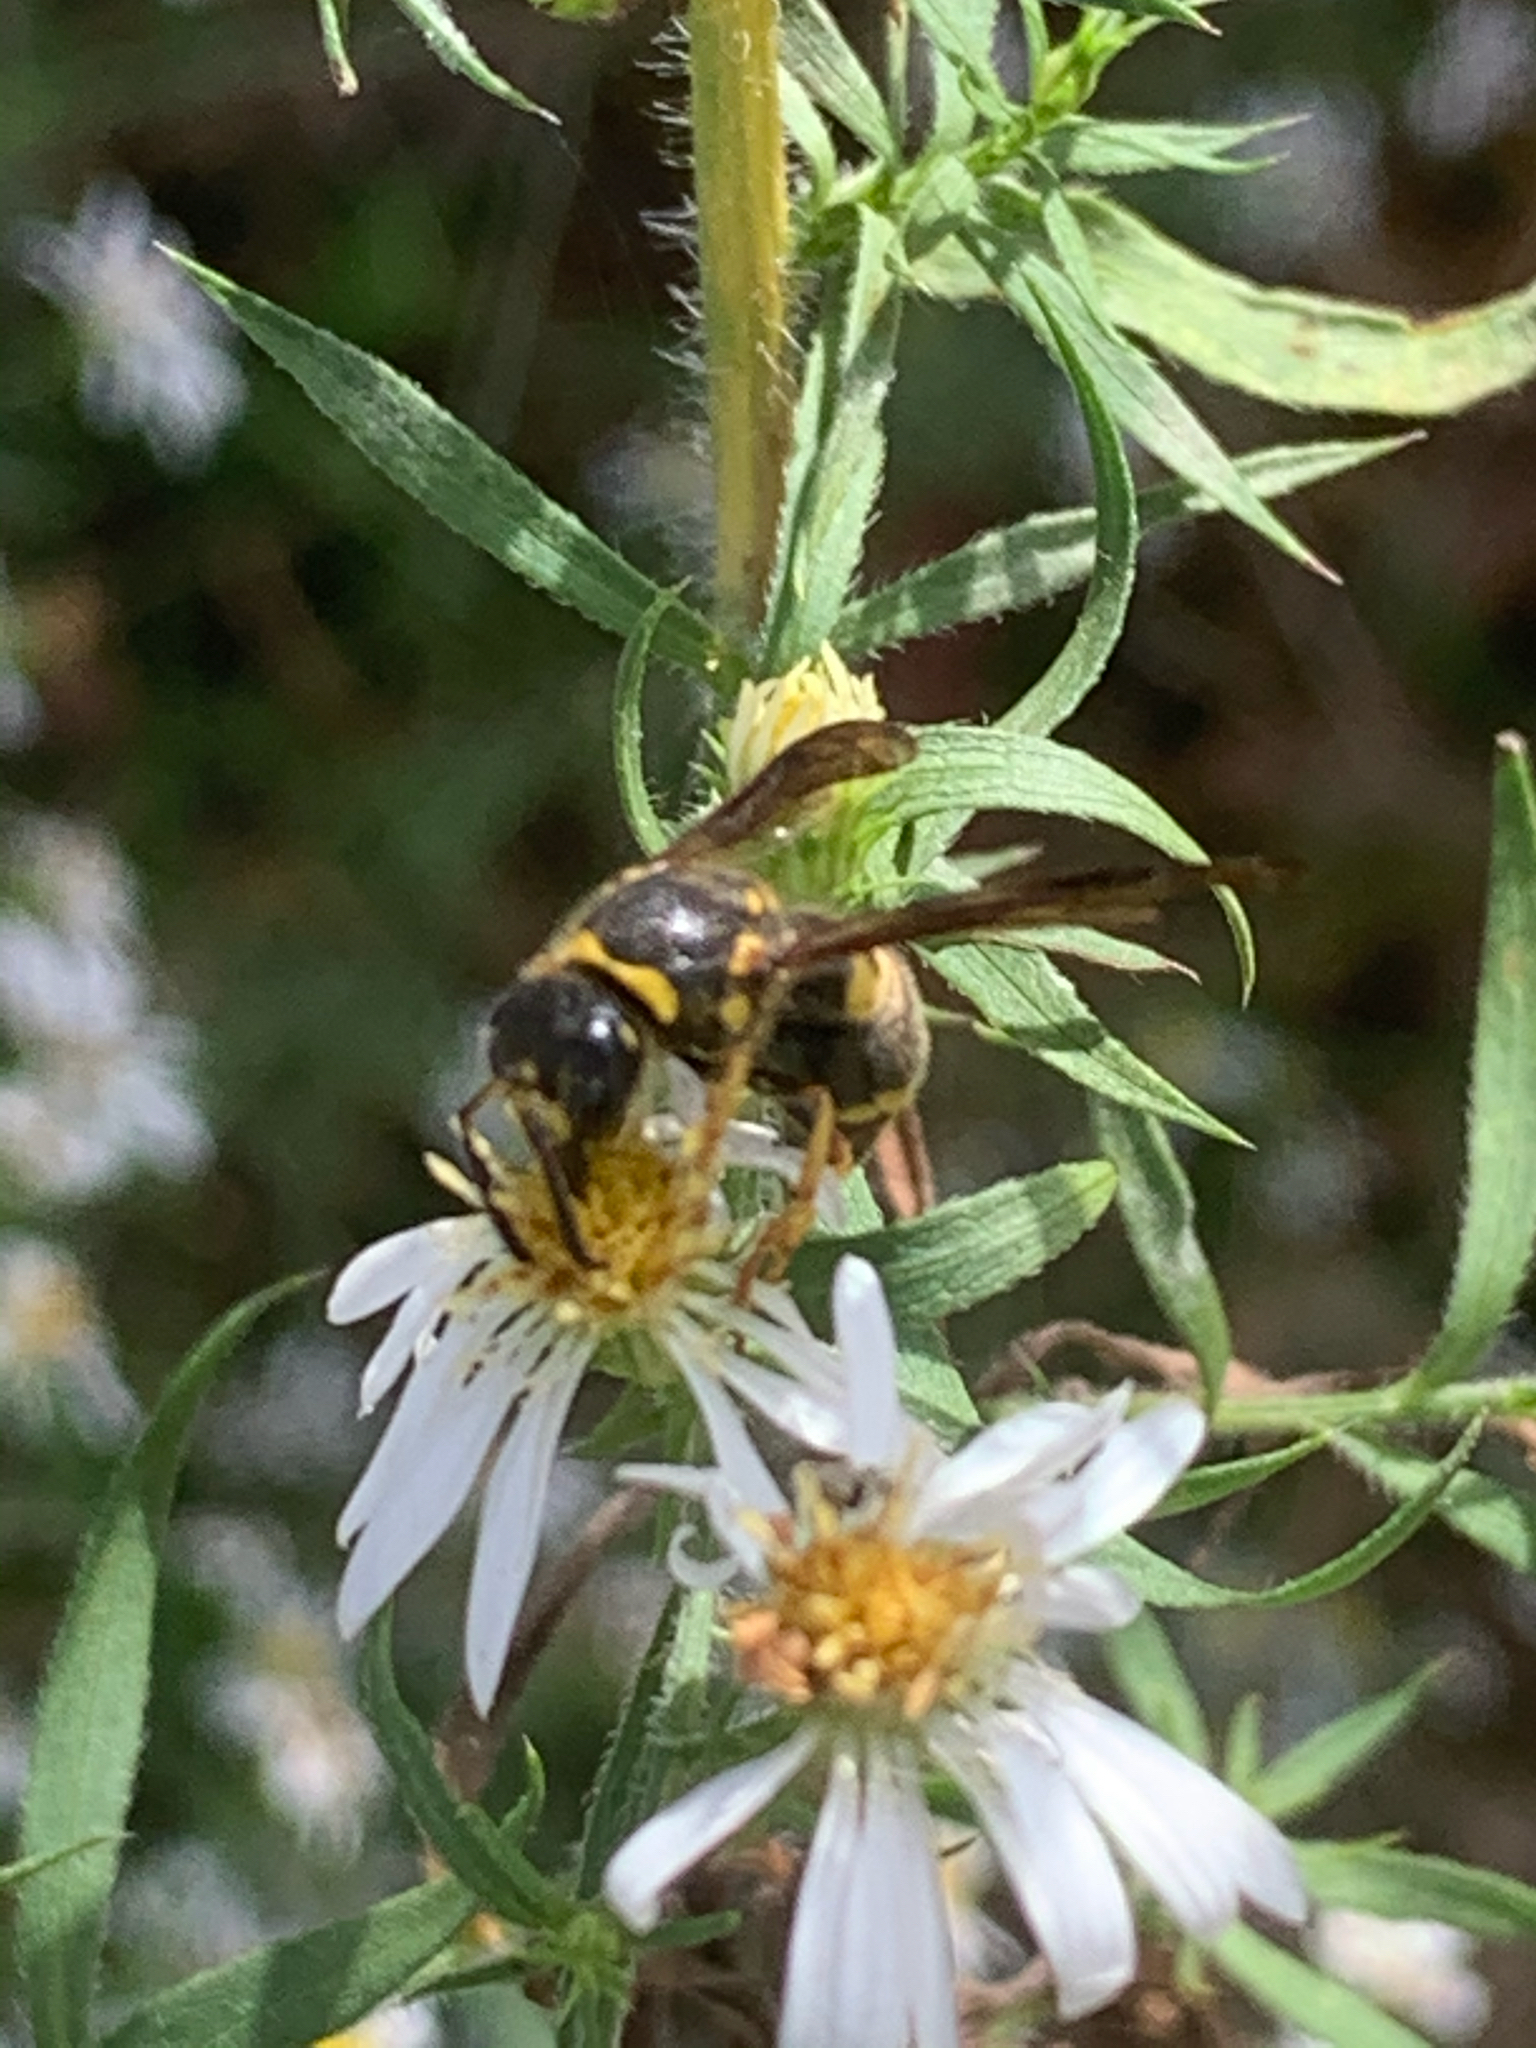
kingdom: Animalia
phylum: Arthropoda
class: Insecta
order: Hymenoptera
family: Vespidae
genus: Ancistrocerus
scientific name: Ancistrocerus campestris
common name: Smiling mason wasp
